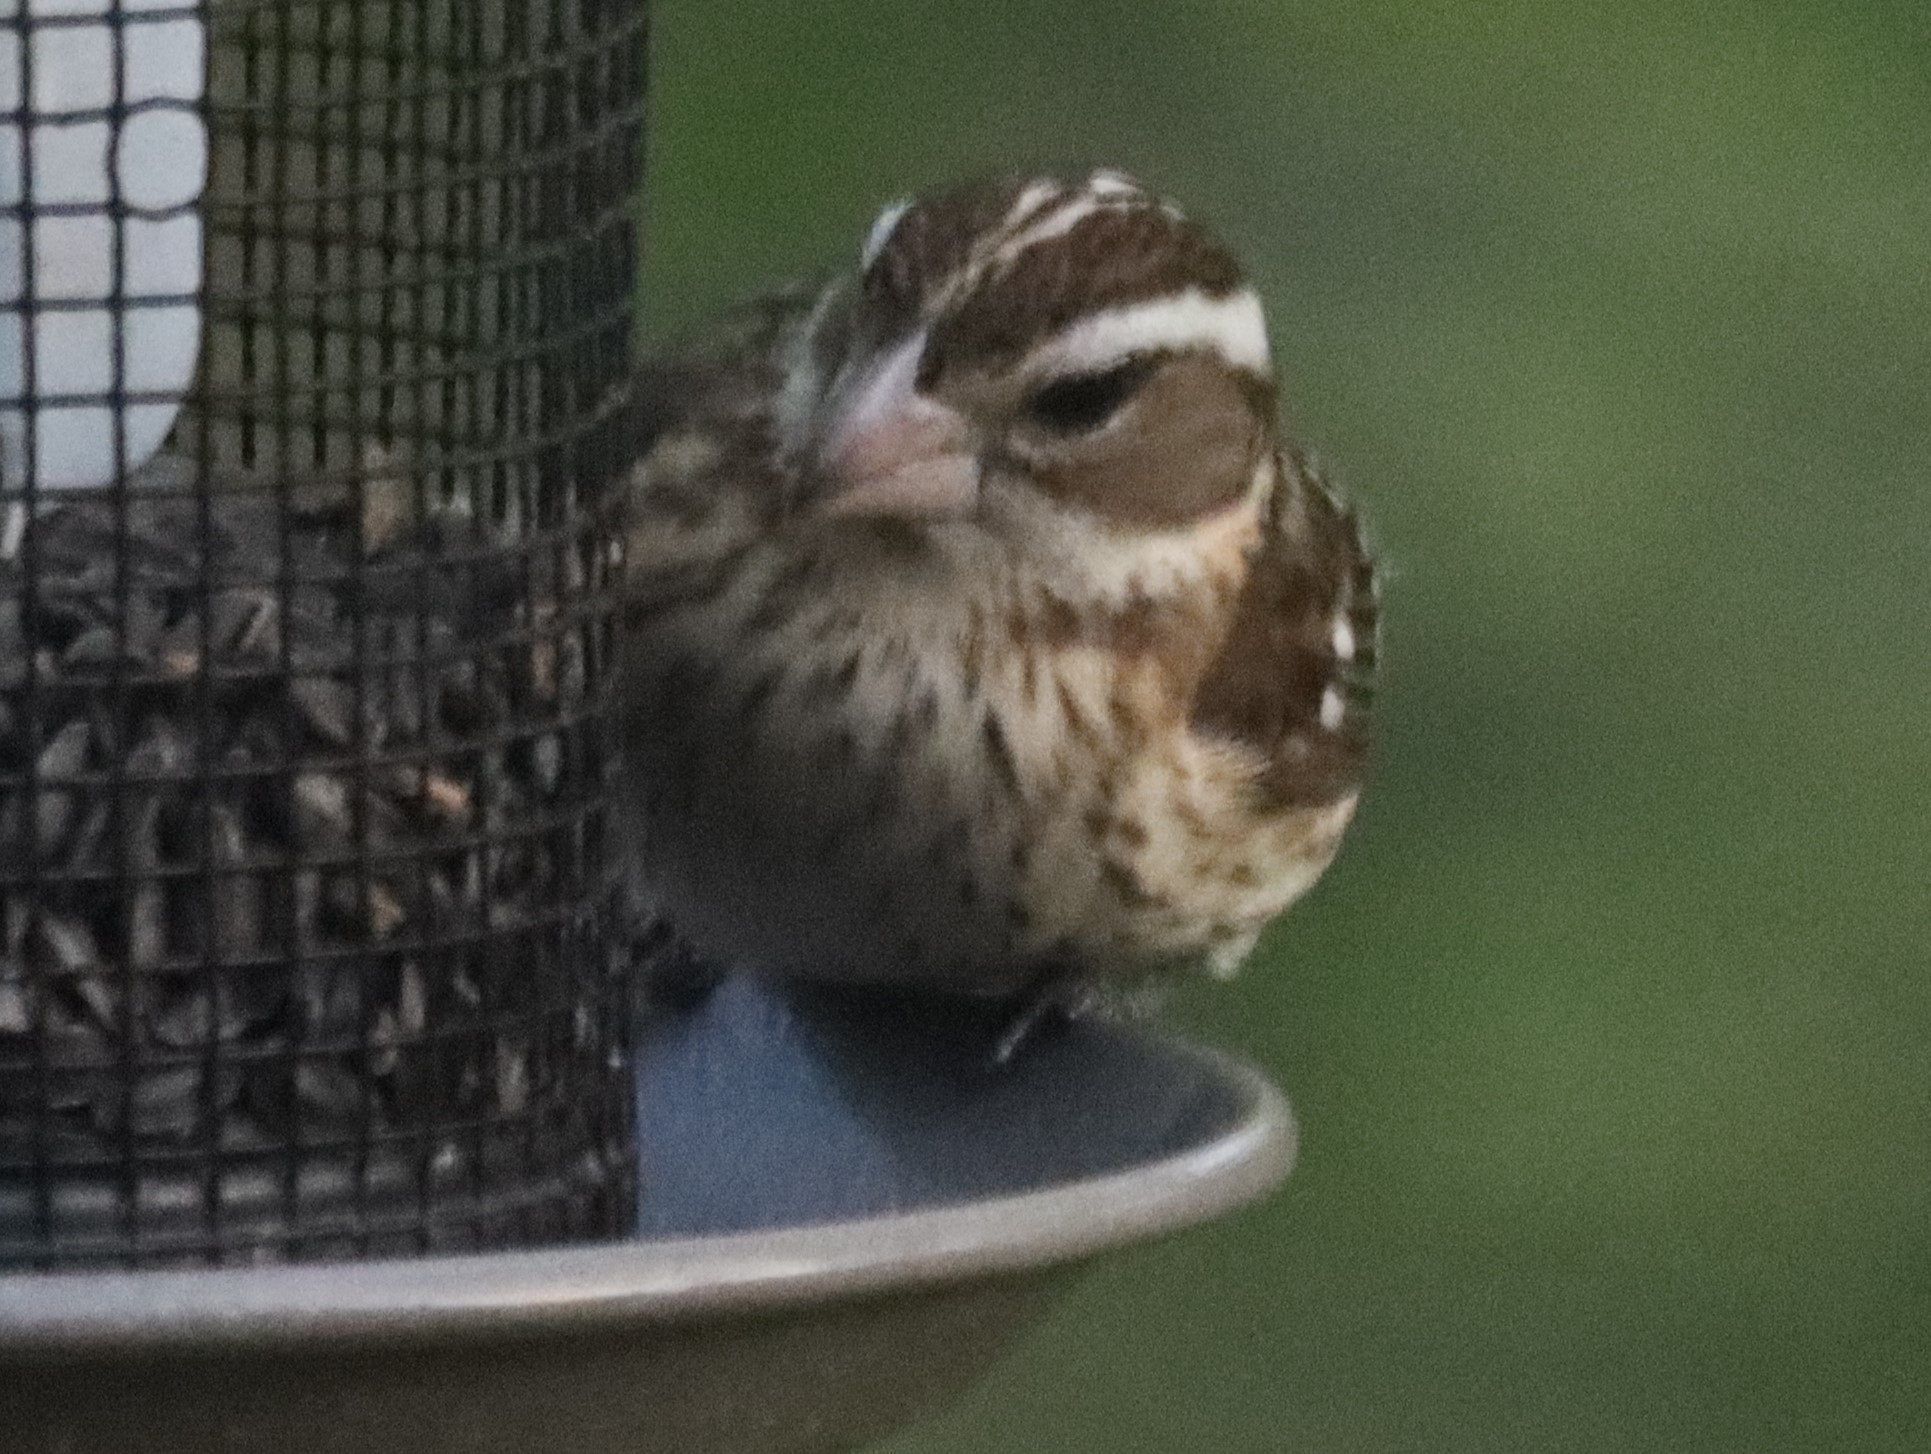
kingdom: Animalia
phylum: Chordata
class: Aves
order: Passeriformes
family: Cardinalidae
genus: Pheucticus
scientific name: Pheucticus ludovicianus
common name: Rose-breasted grosbeak
